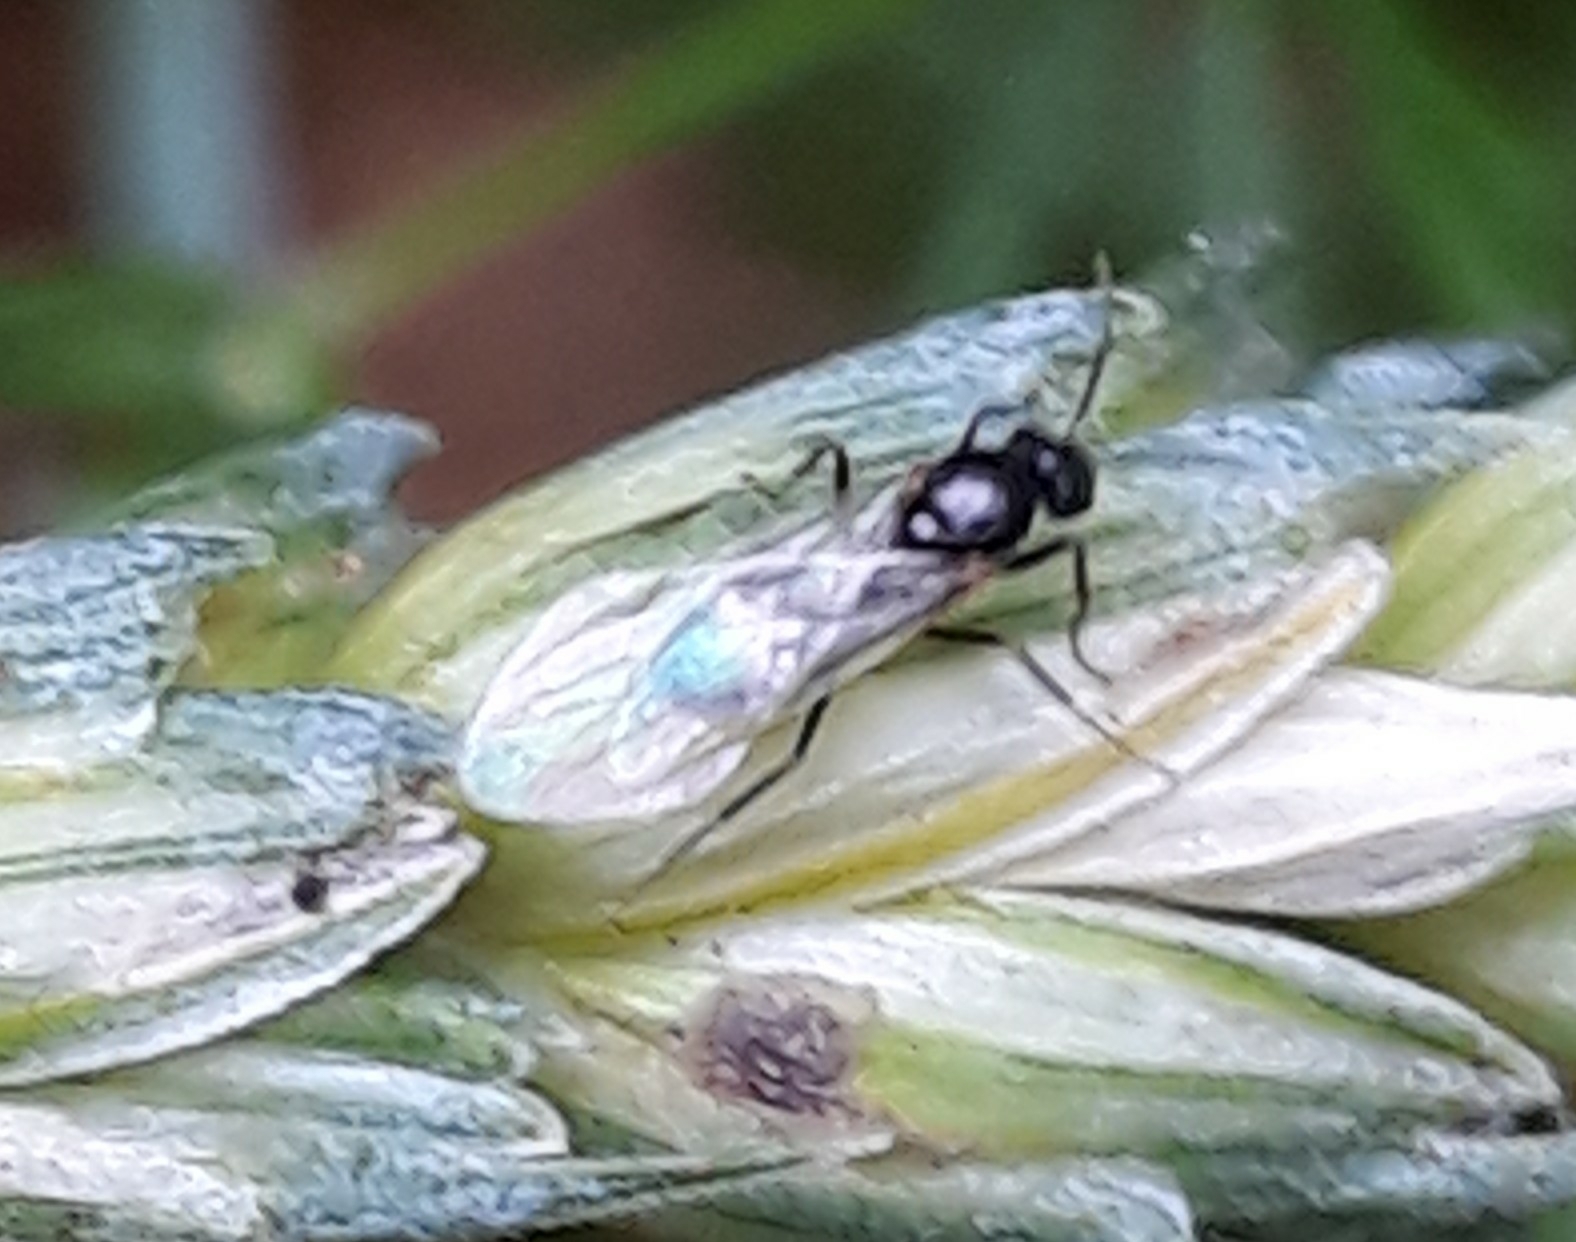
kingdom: Animalia
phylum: Arthropoda
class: Insecta
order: Hymenoptera
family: Formicidae
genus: Lasius
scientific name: Lasius fuliginosus
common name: Jet ant
